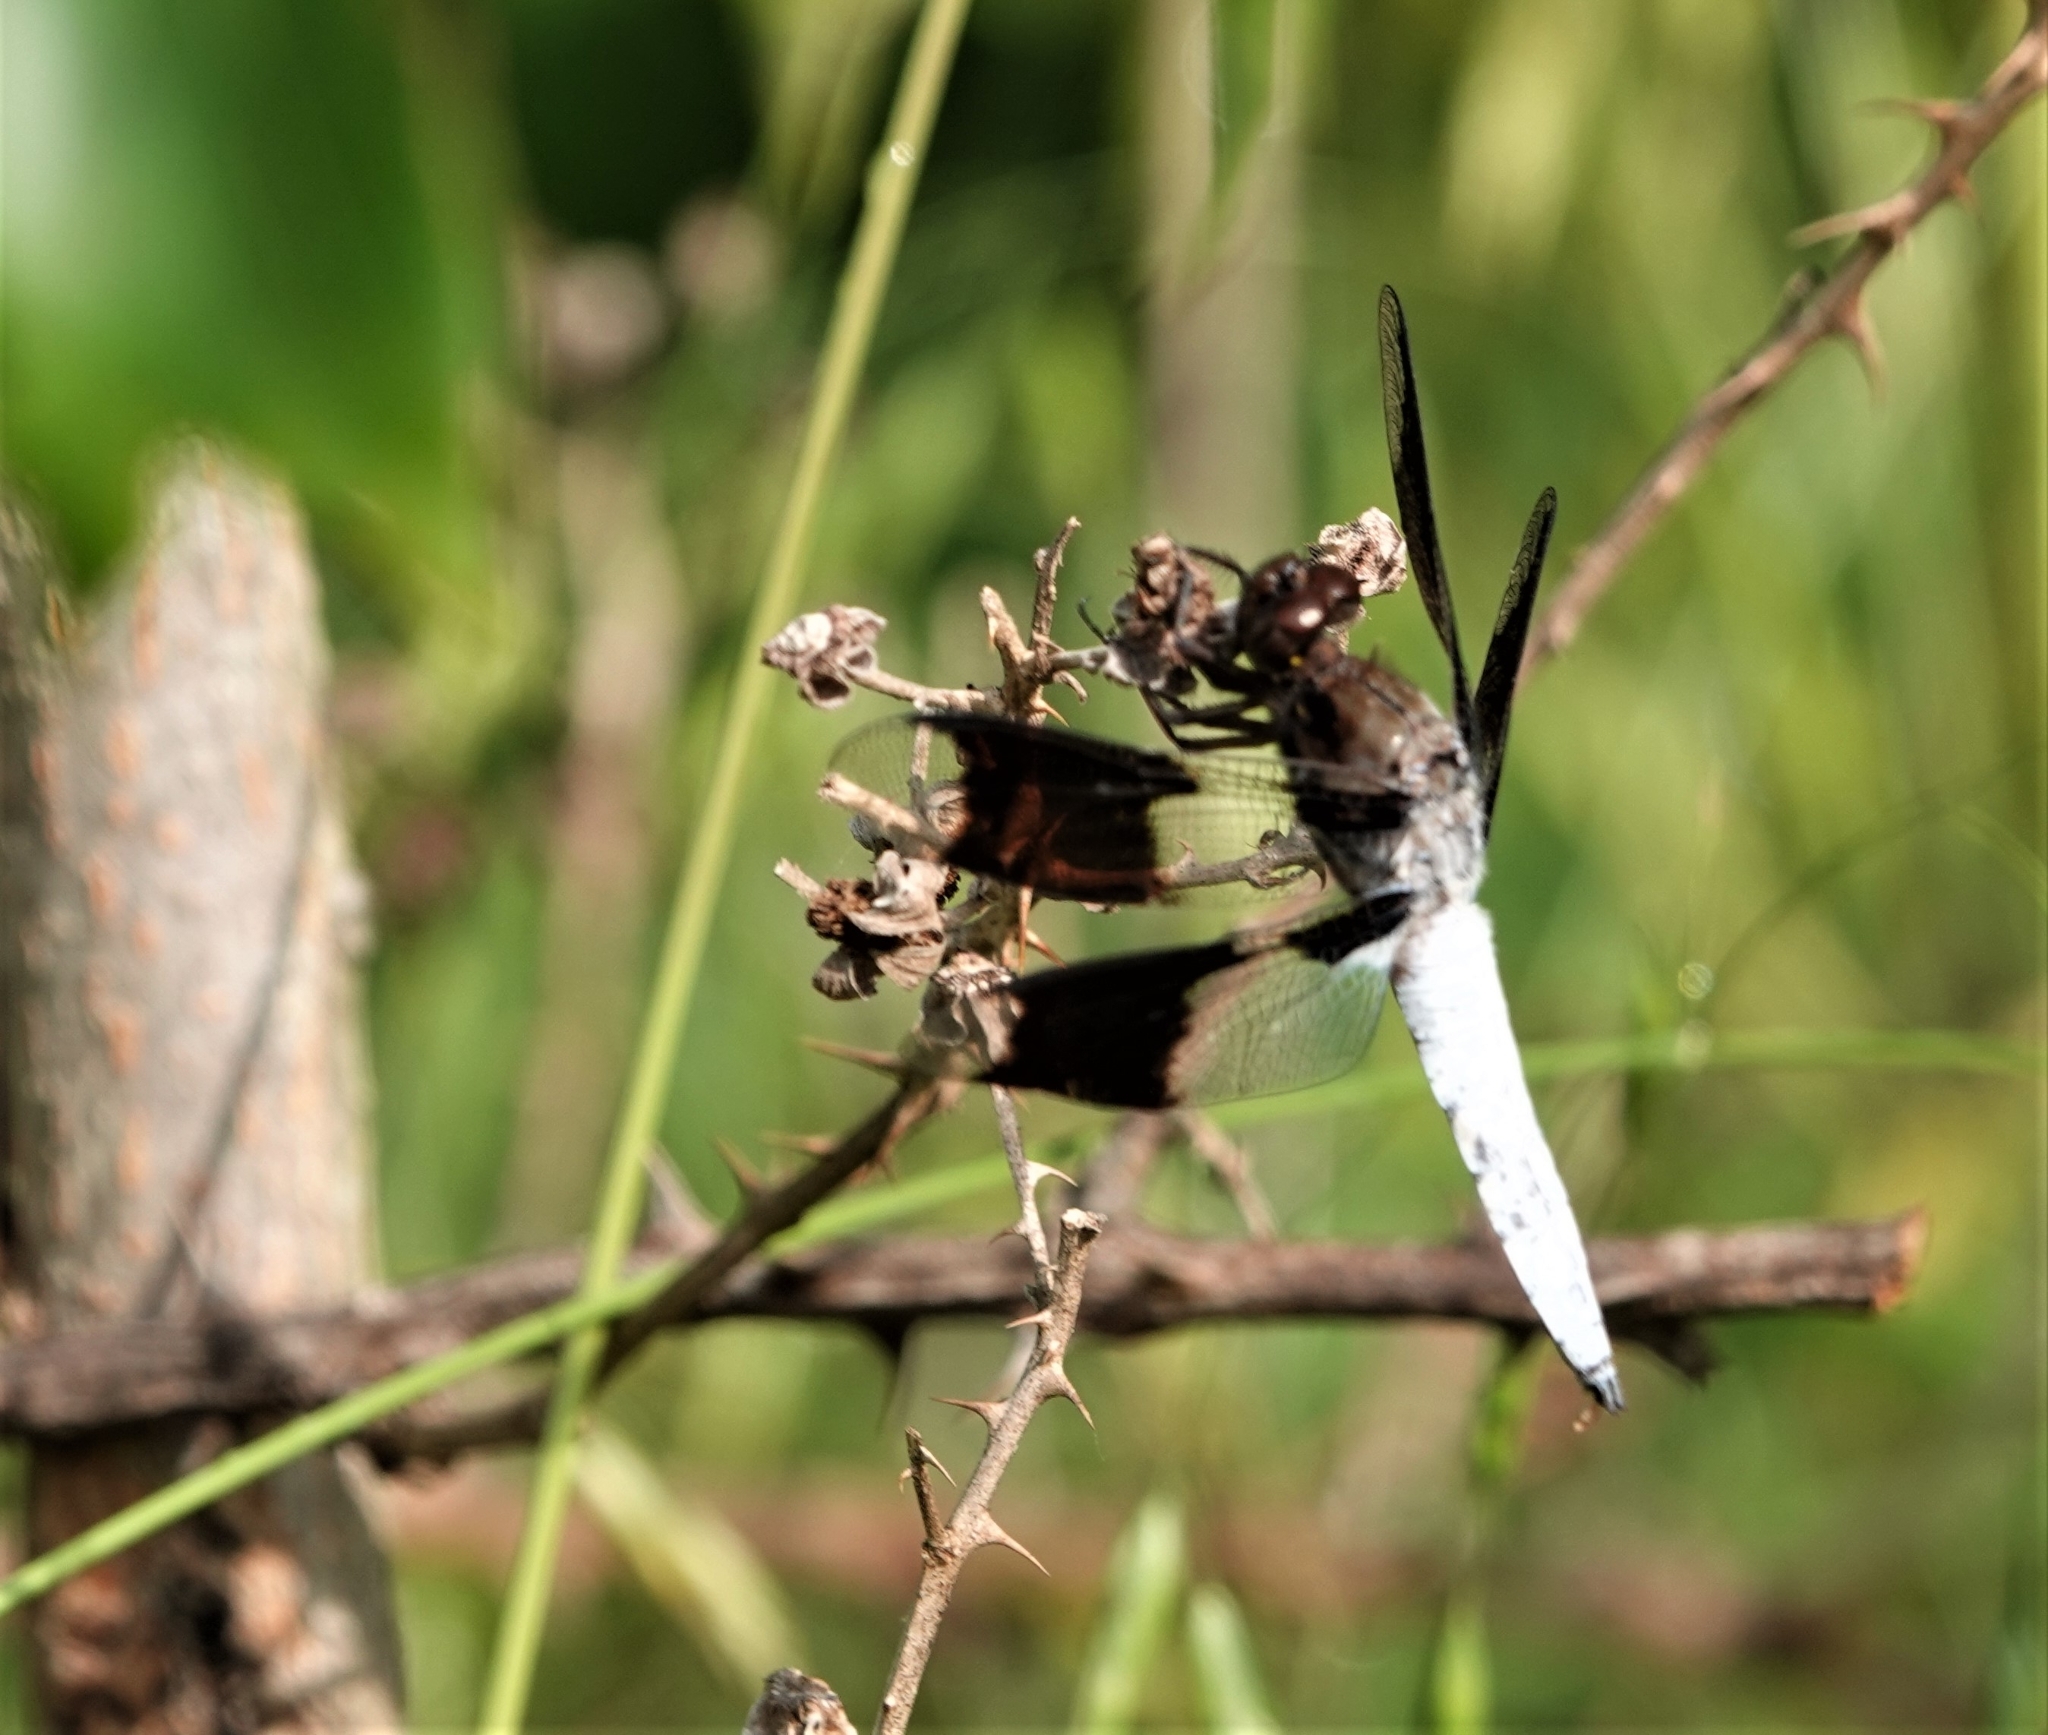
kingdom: Animalia
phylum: Arthropoda
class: Insecta
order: Odonata
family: Libellulidae
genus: Plathemis
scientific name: Plathemis lydia
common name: Common whitetail
